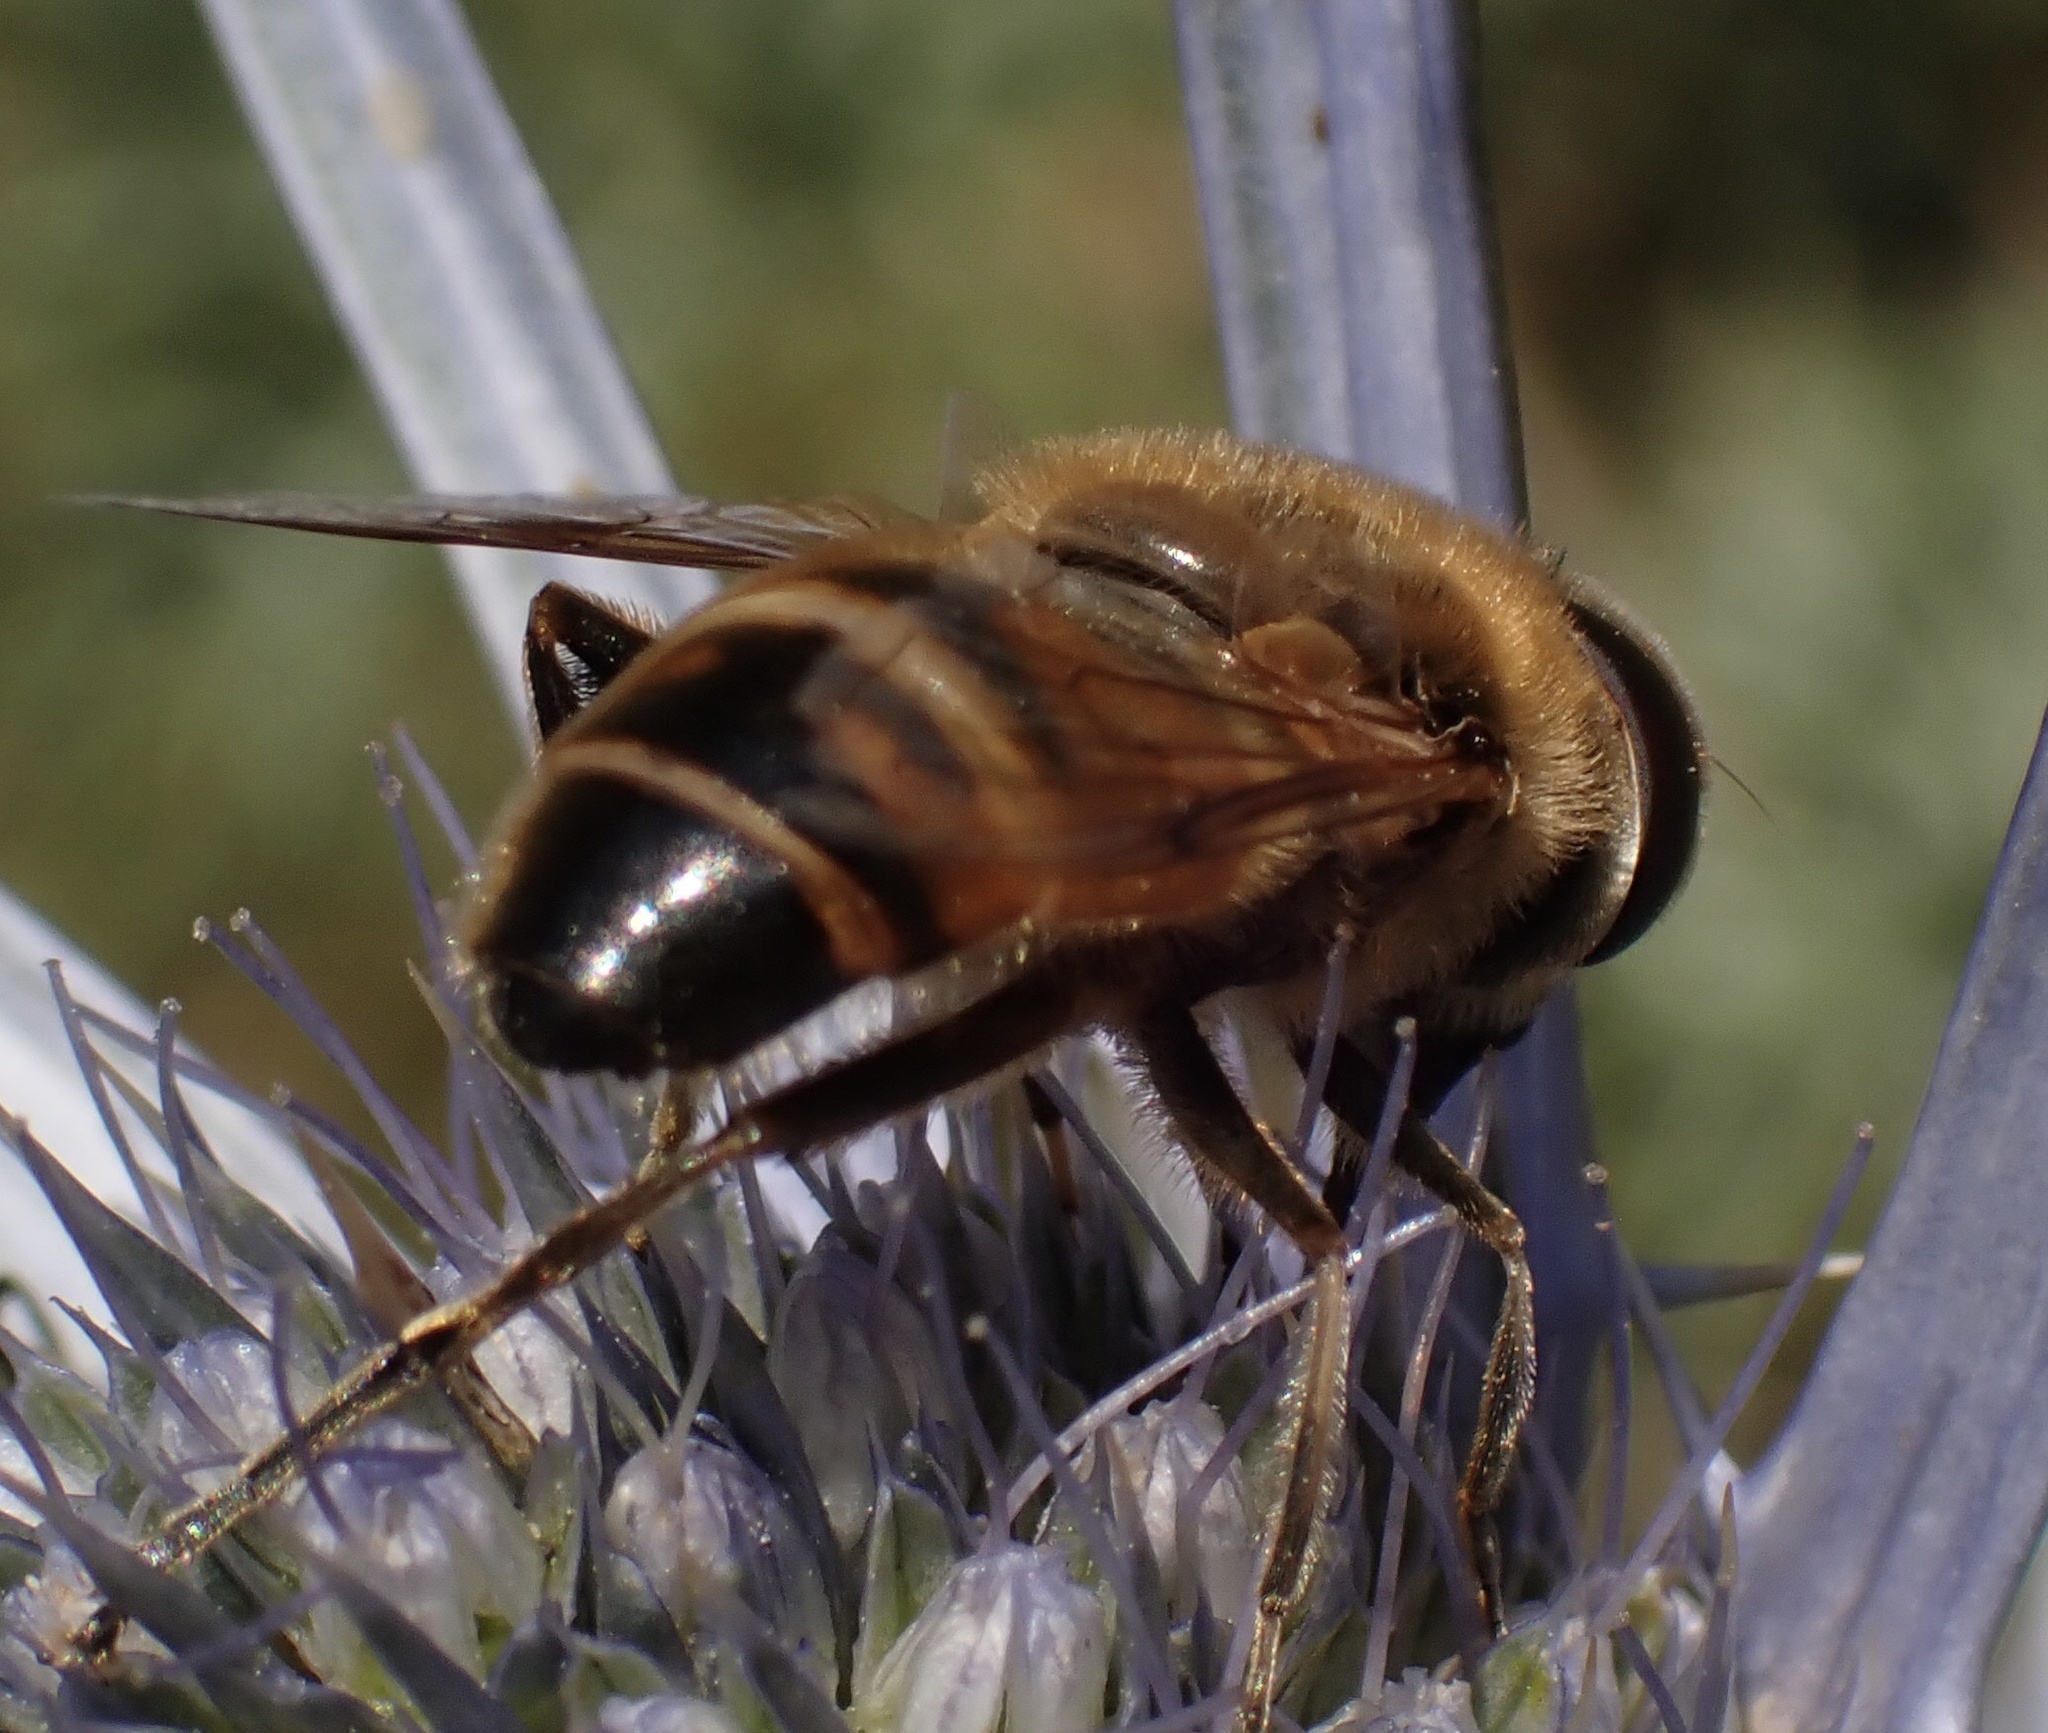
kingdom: Animalia
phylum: Arthropoda
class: Insecta
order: Diptera
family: Syrphidae
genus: Eristalis
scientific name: Eristalis tenax
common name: Drone fly
